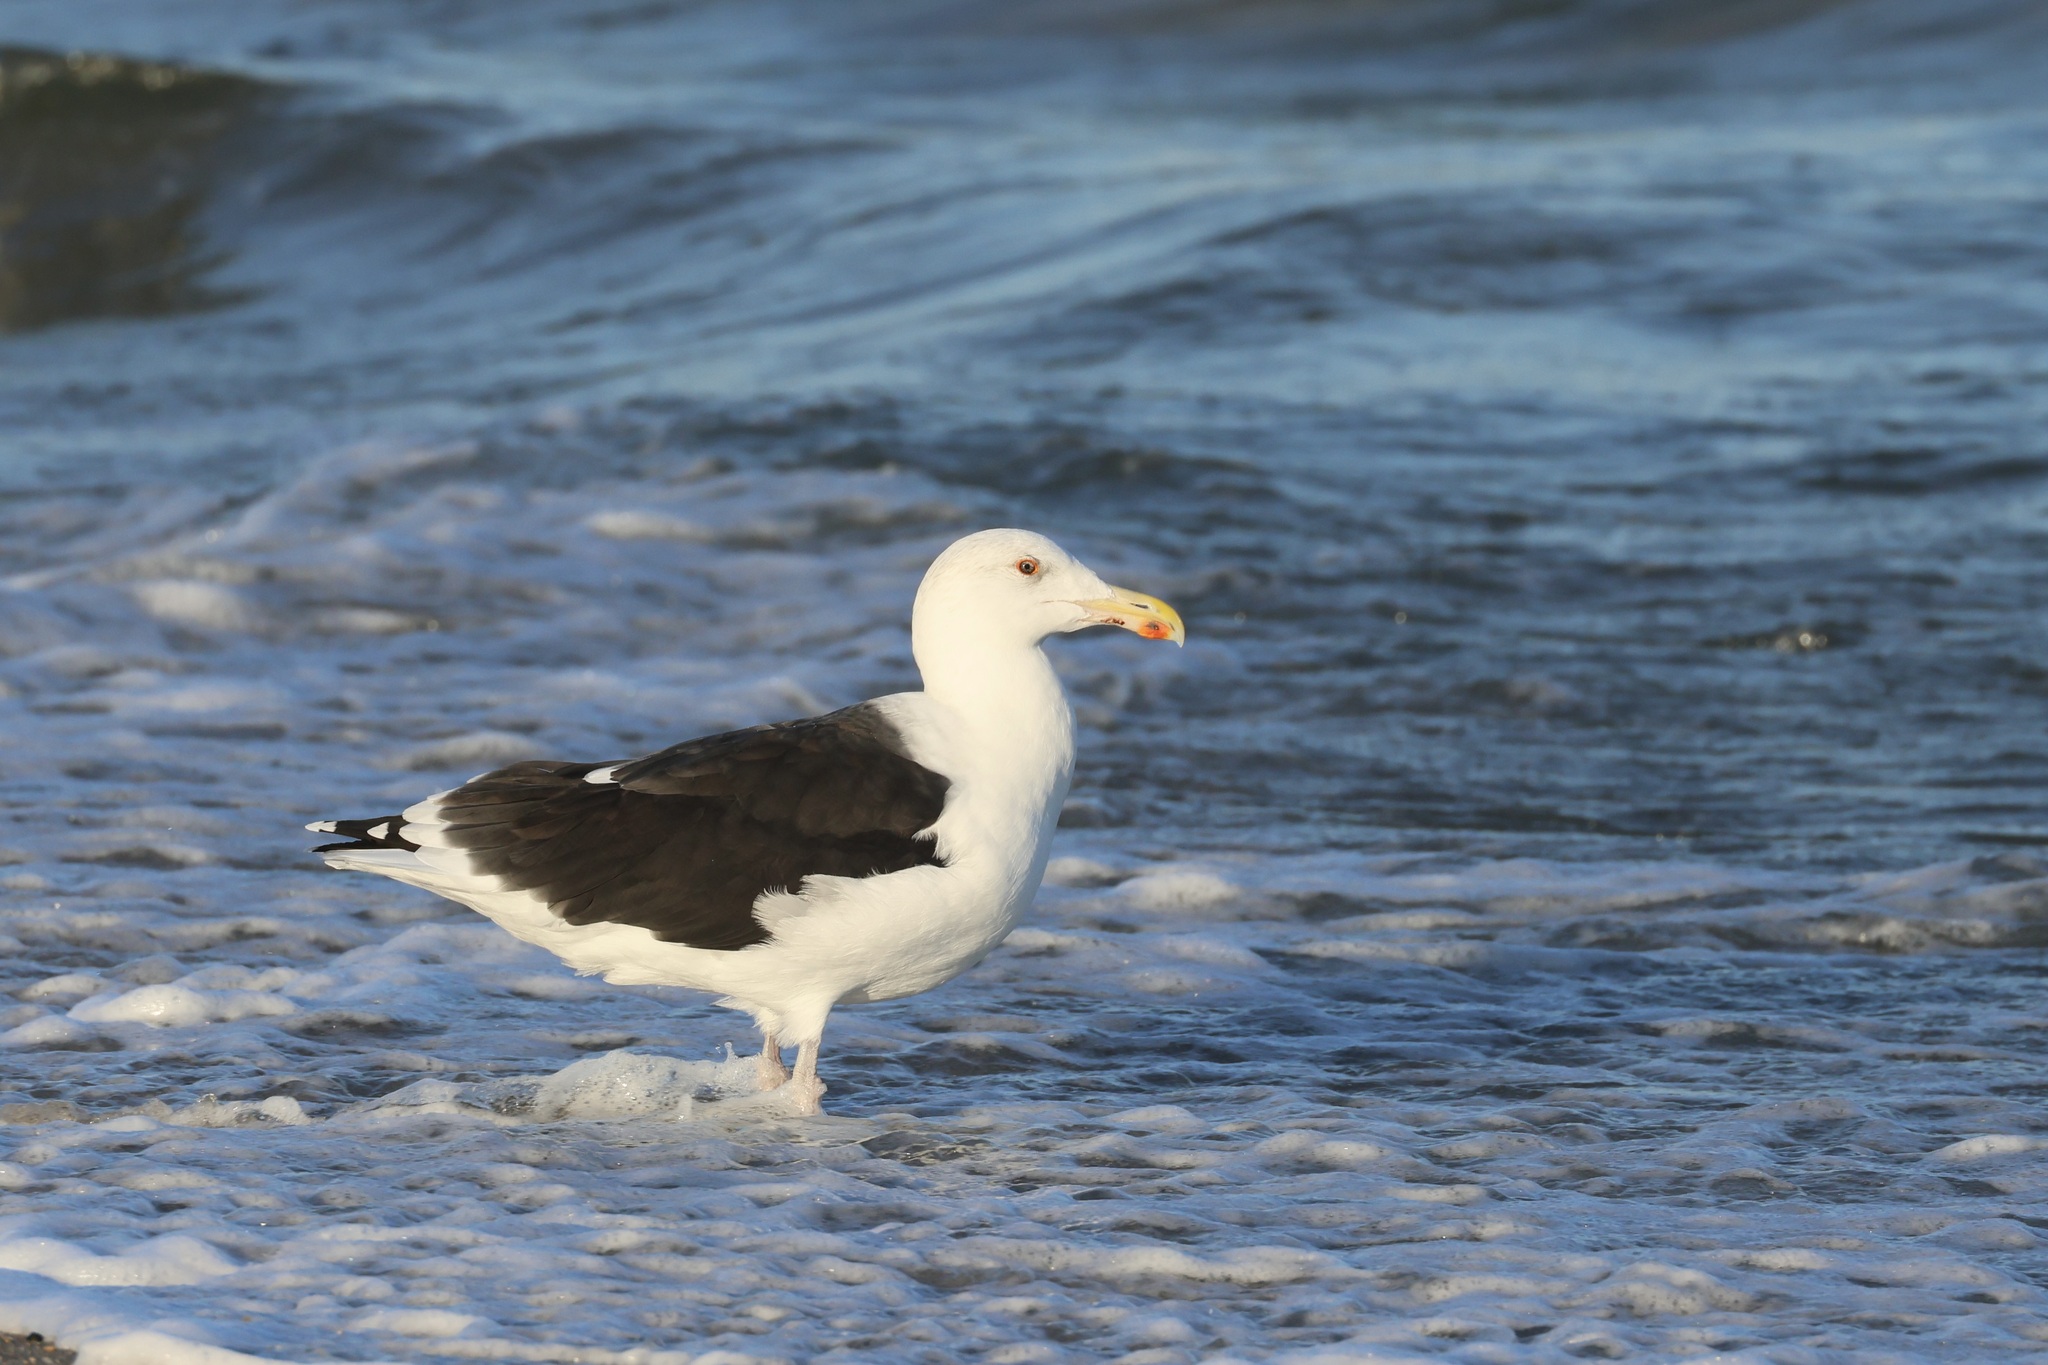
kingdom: Animalia
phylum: Chordata
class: Aves
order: Charadriiformes
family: Laridae
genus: Larus
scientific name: Larus marinus
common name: Great black-backed gull
